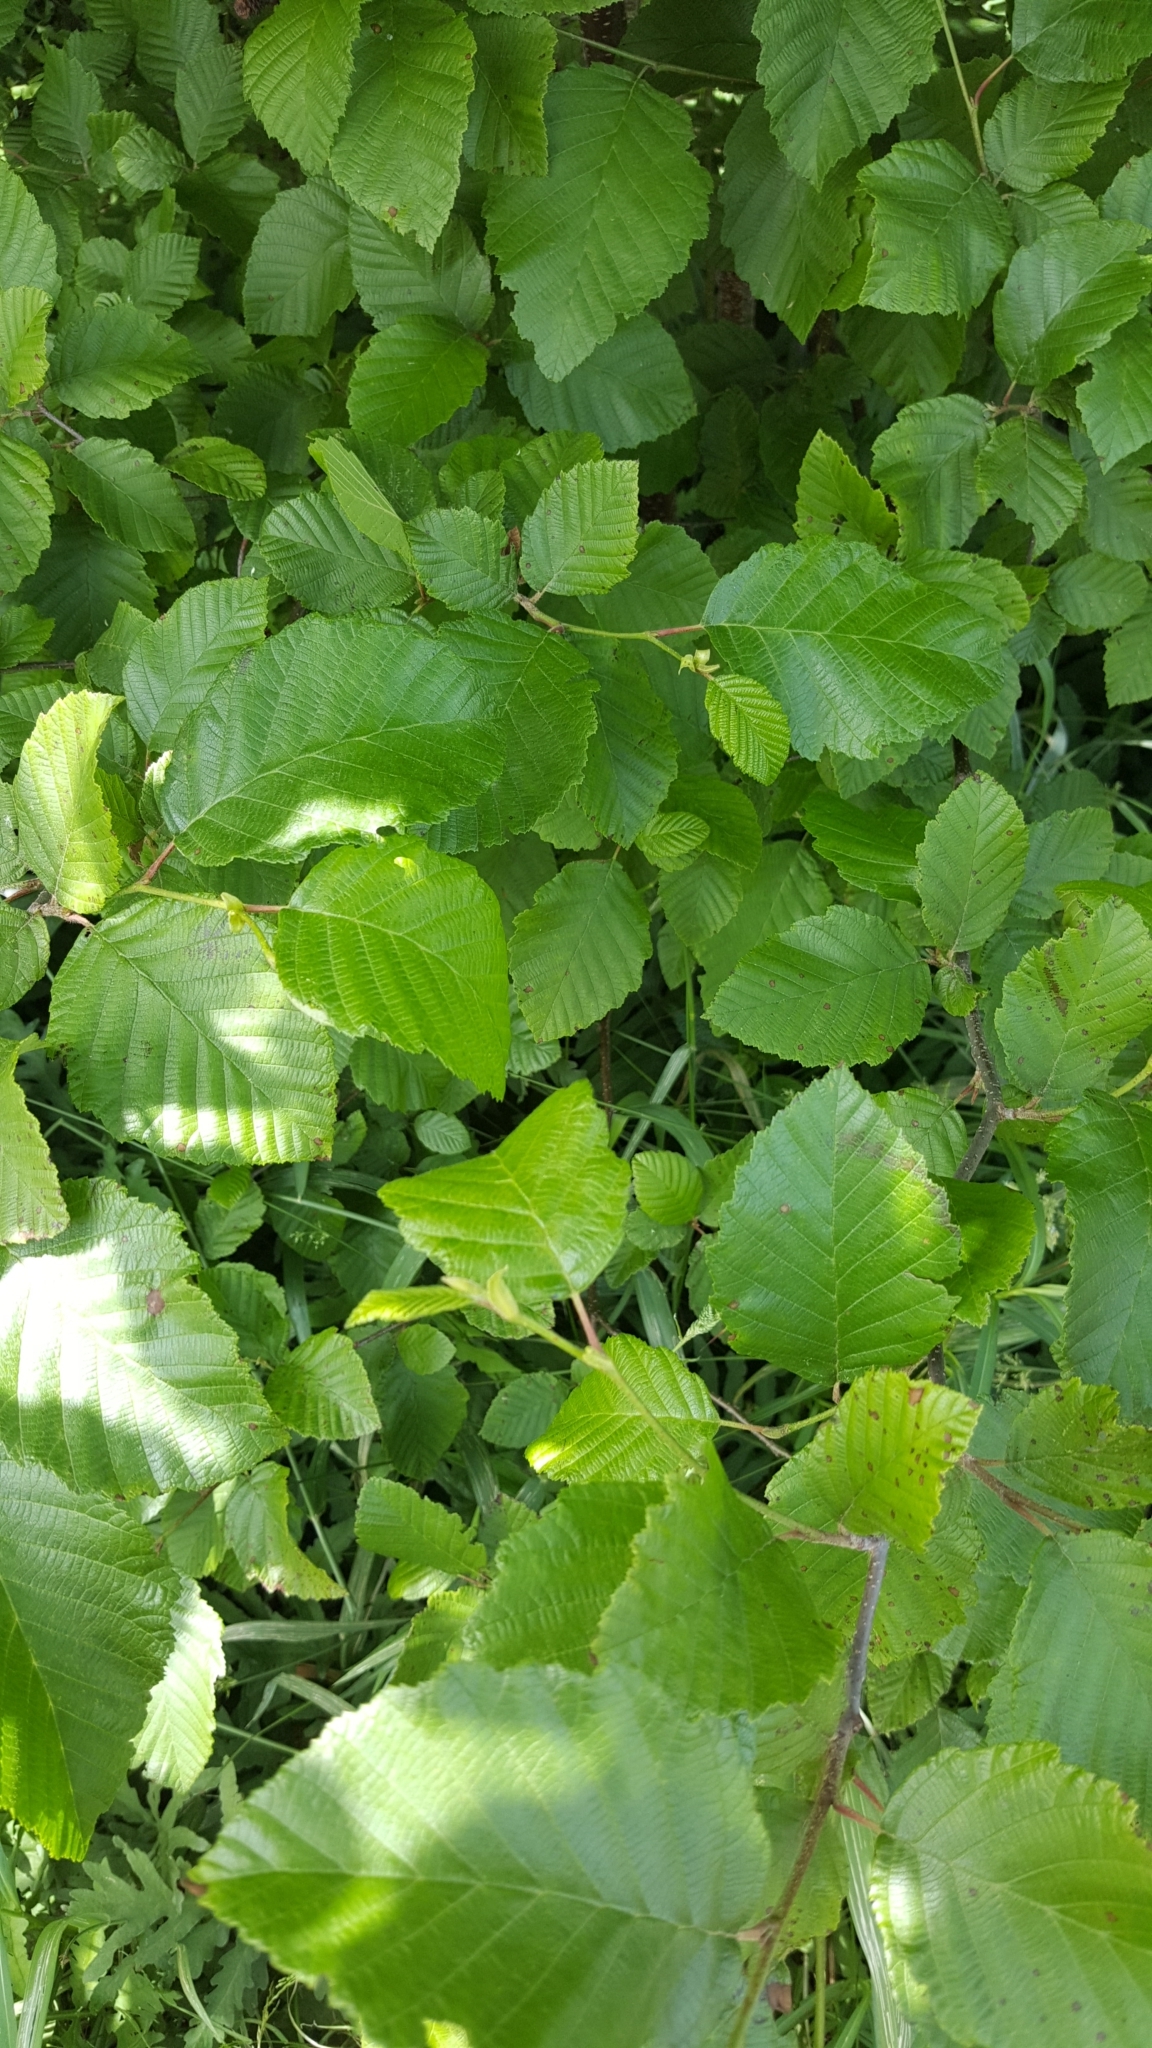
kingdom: Plantae
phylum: Tracheophyta
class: Magnoliopsida
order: Fagales
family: Betulaceae
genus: Alnus
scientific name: Alnus incana
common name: Grey alder
